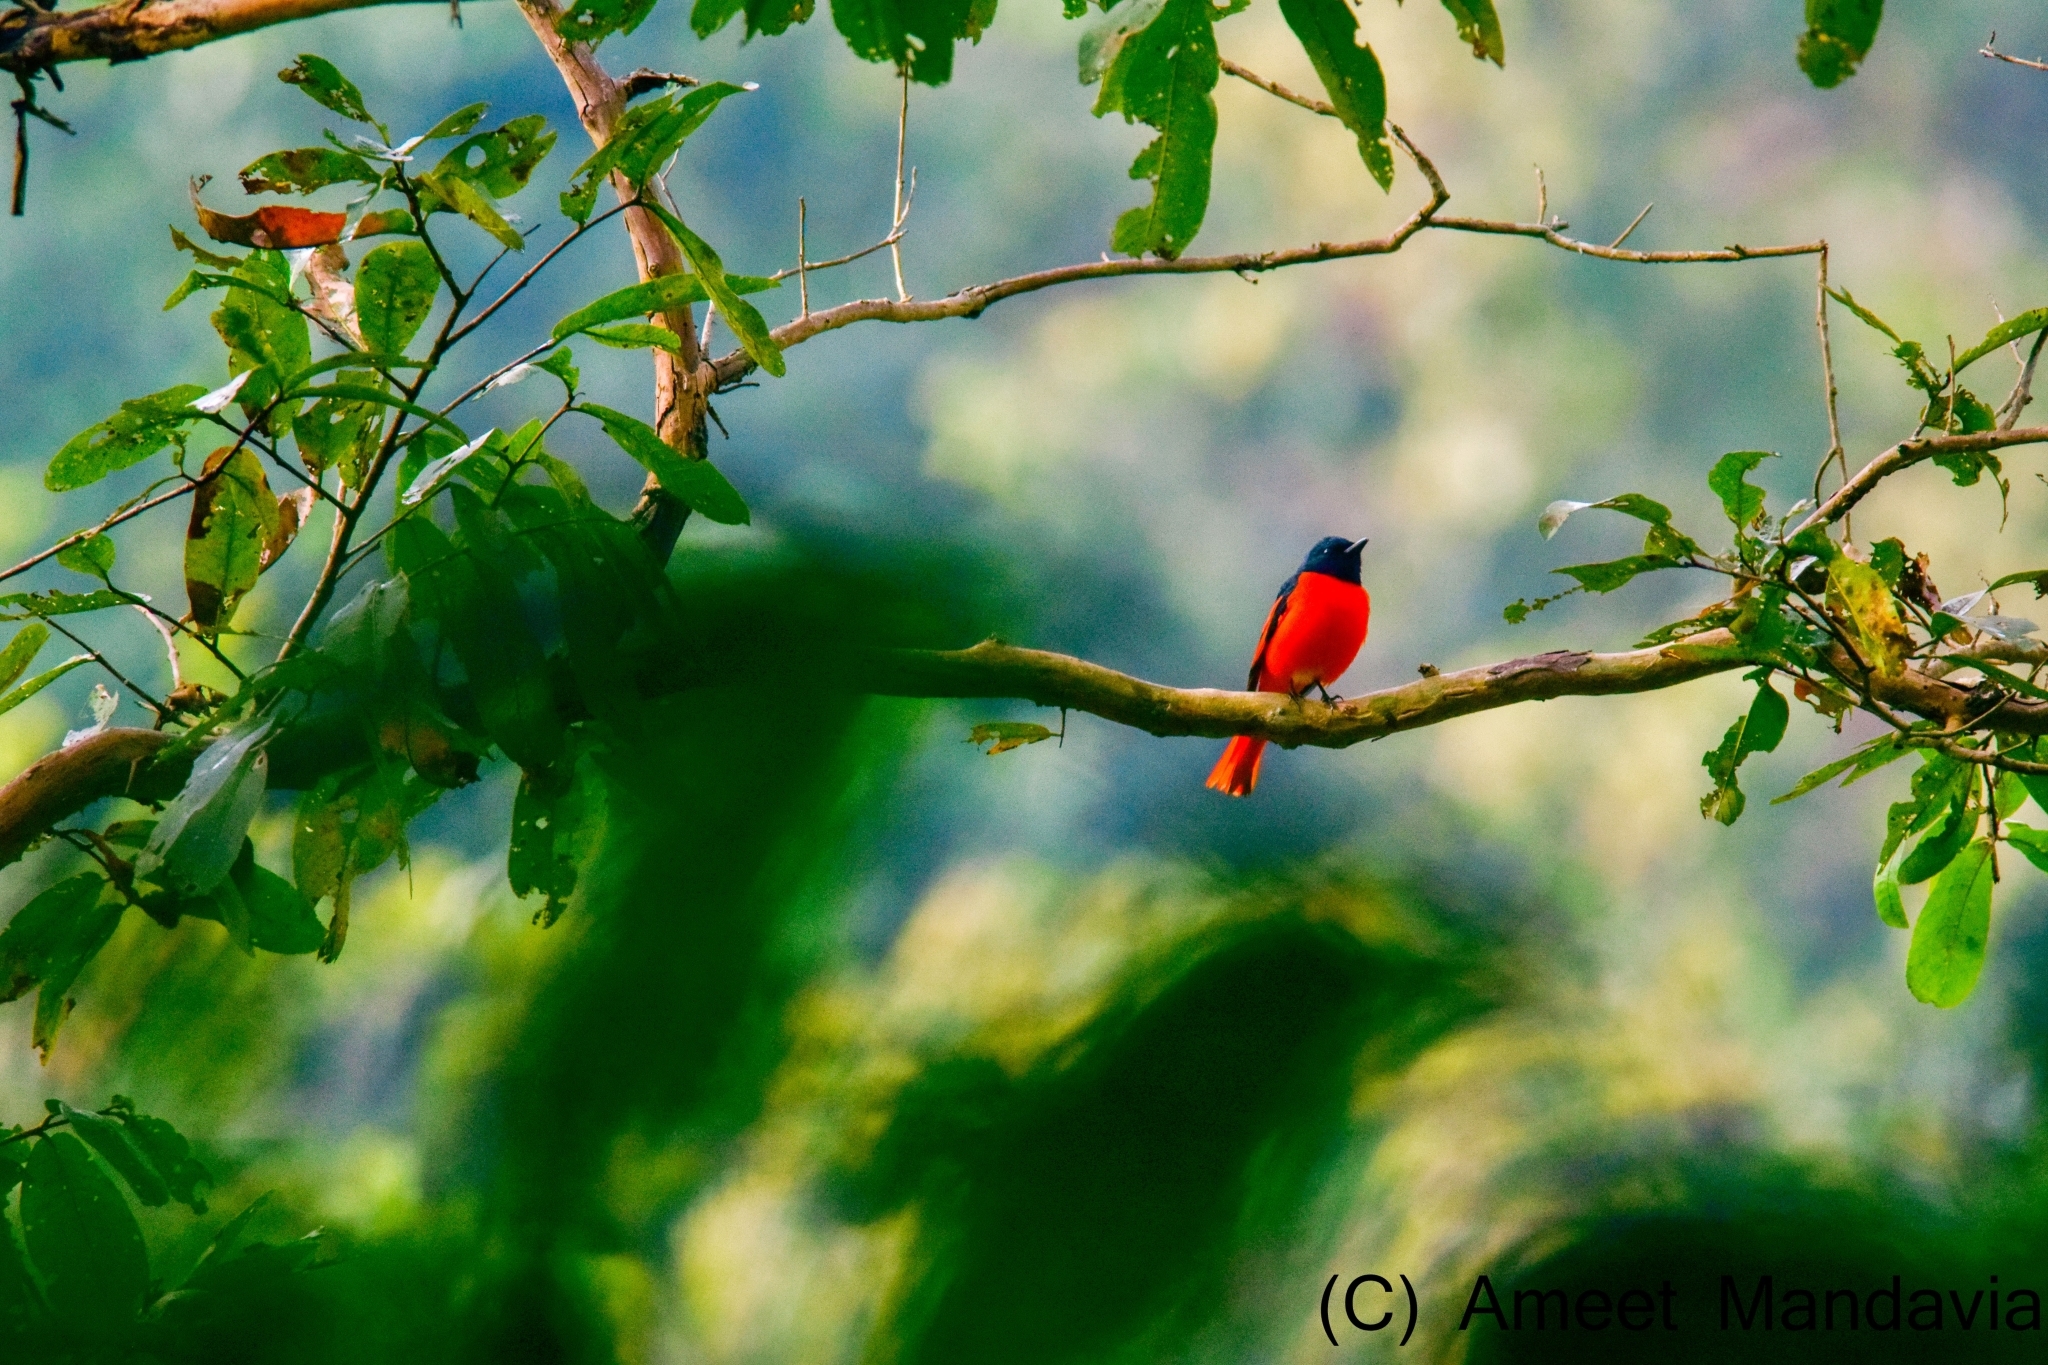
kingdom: Animalia
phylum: Chordata
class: Aves
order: Passeriformes
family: Campephagidae
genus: Pericrocotus
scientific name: Pericrocotus speciosus
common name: Scarlet minivet
